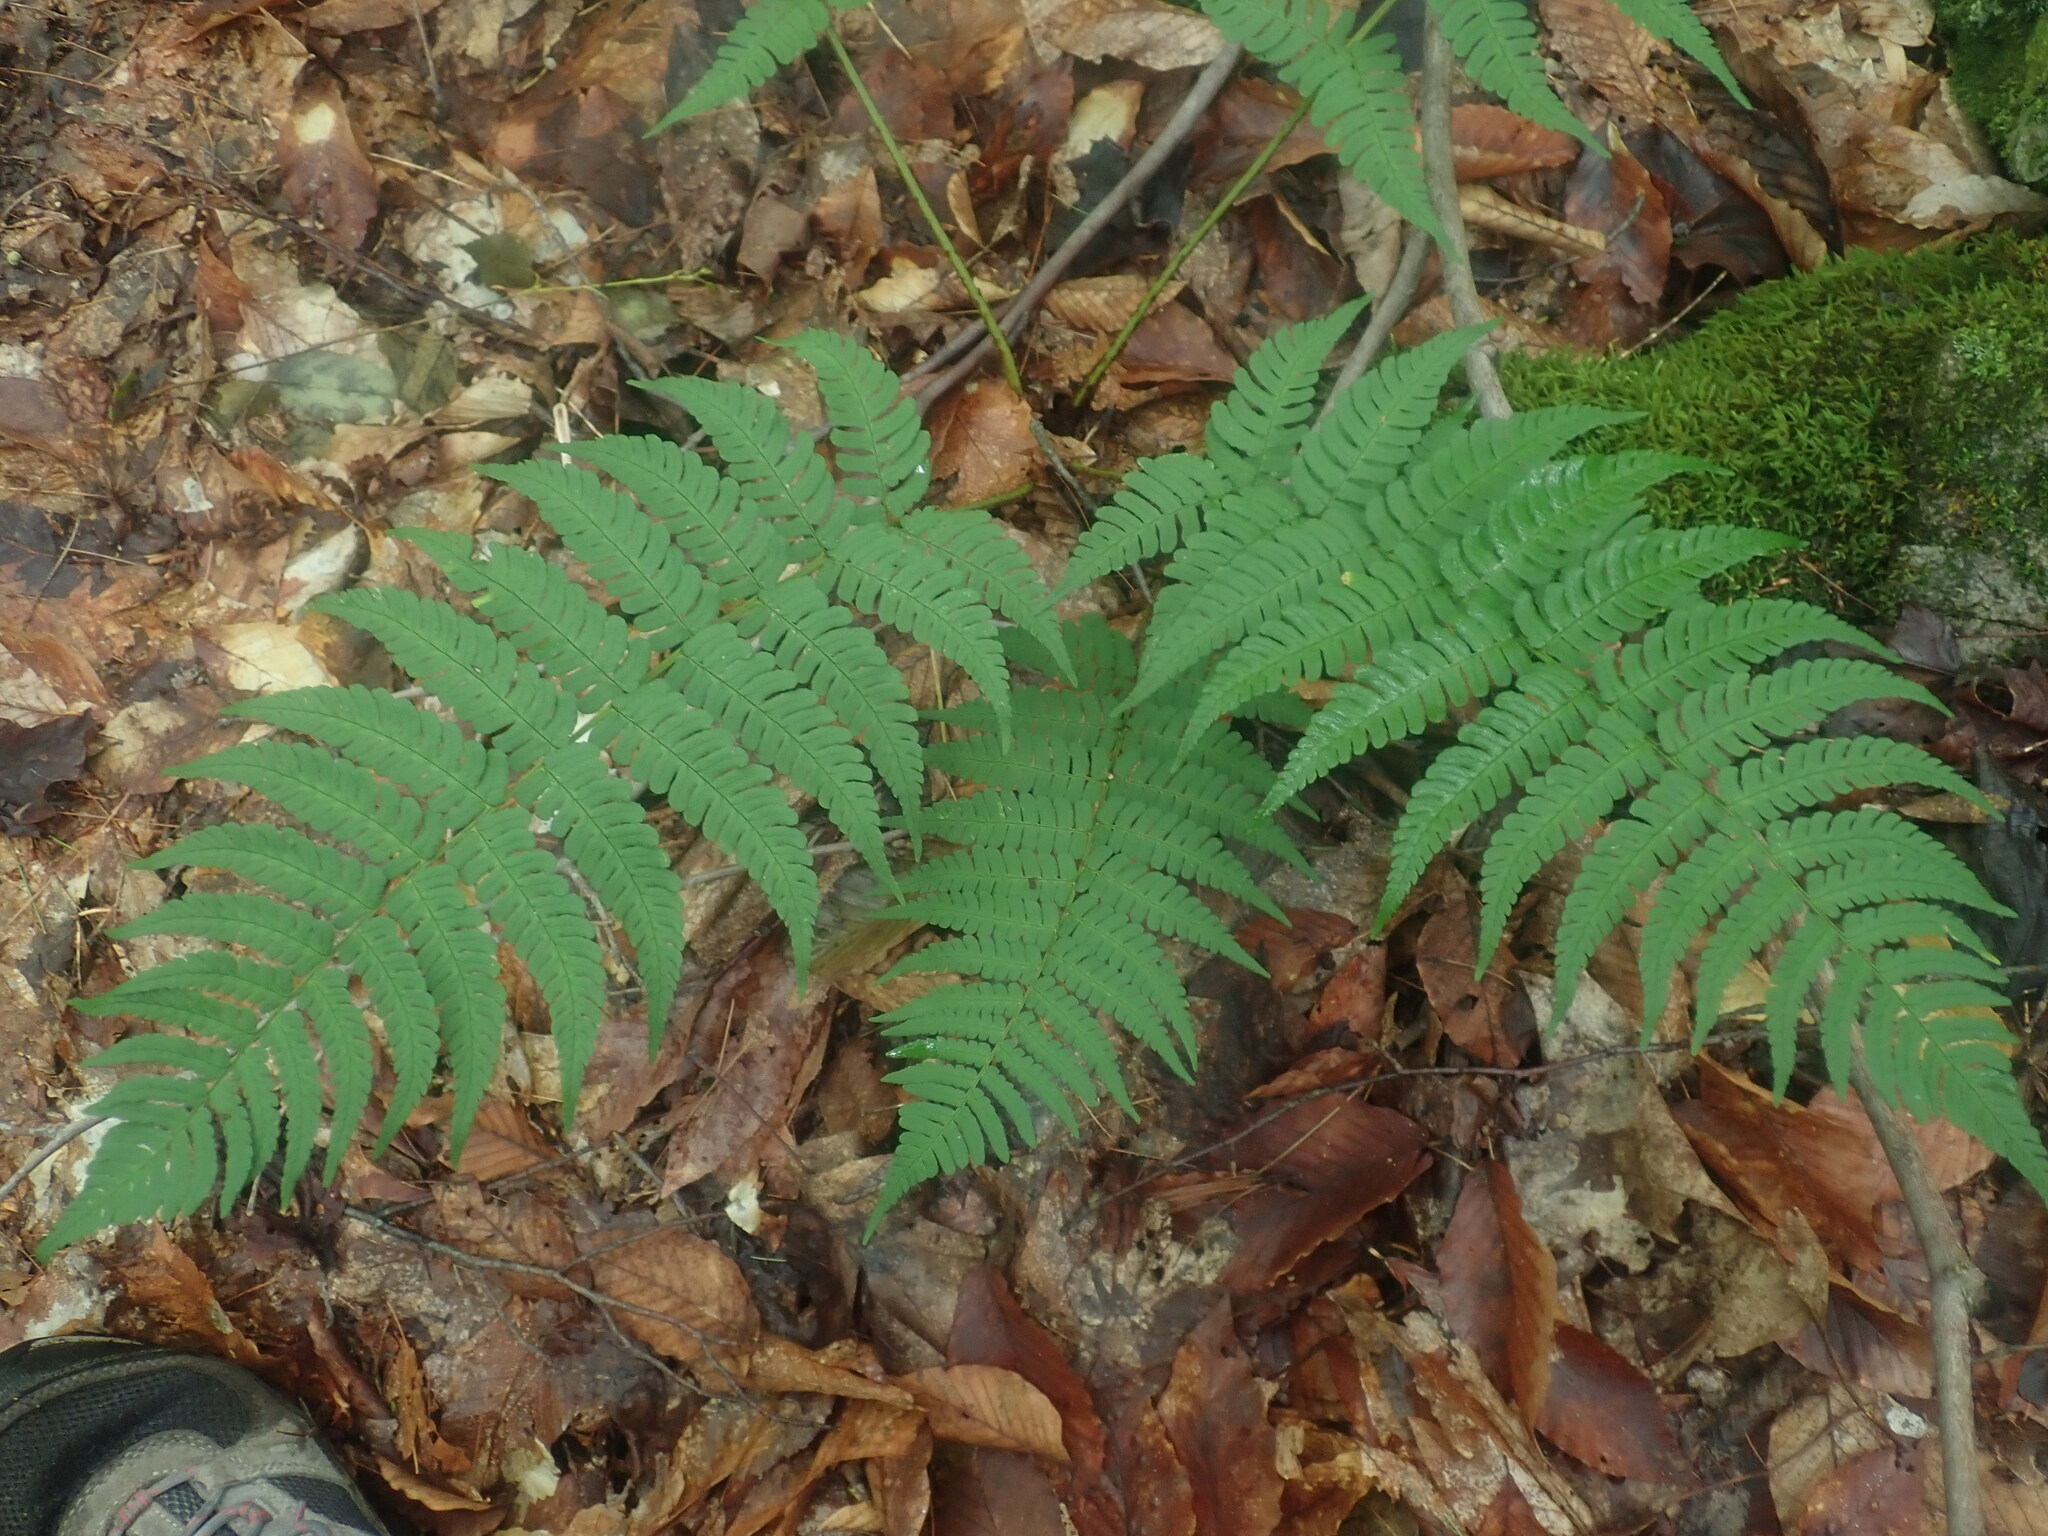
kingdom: Plantae
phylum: Tracheophyta
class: Polypodiopsida
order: Polypodiales
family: Dryopteridaceae
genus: Dryopteris
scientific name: Dryopteris marginalis
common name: Marginal wood fern
